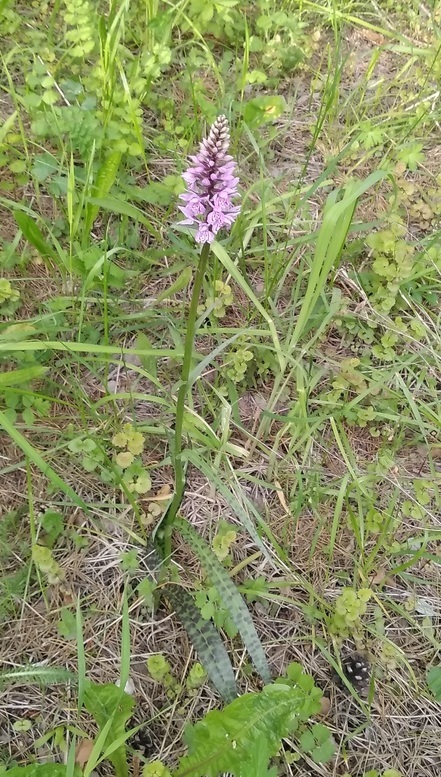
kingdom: Plantae
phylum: Tracheophyta
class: Liliopsida
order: Asparagales
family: Orchidaceae
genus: Dactylorhiza
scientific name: Dactylorhiza maculata
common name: Heath spotted-orchid
